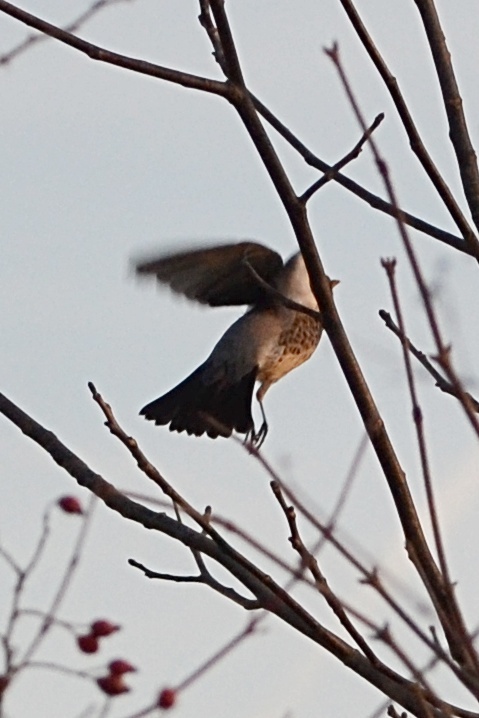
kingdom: Animalia
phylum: Chordata
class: Aves
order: Passeriformes
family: Turdidae
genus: Turdus
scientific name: Turdus pilaris
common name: Fieldfare
